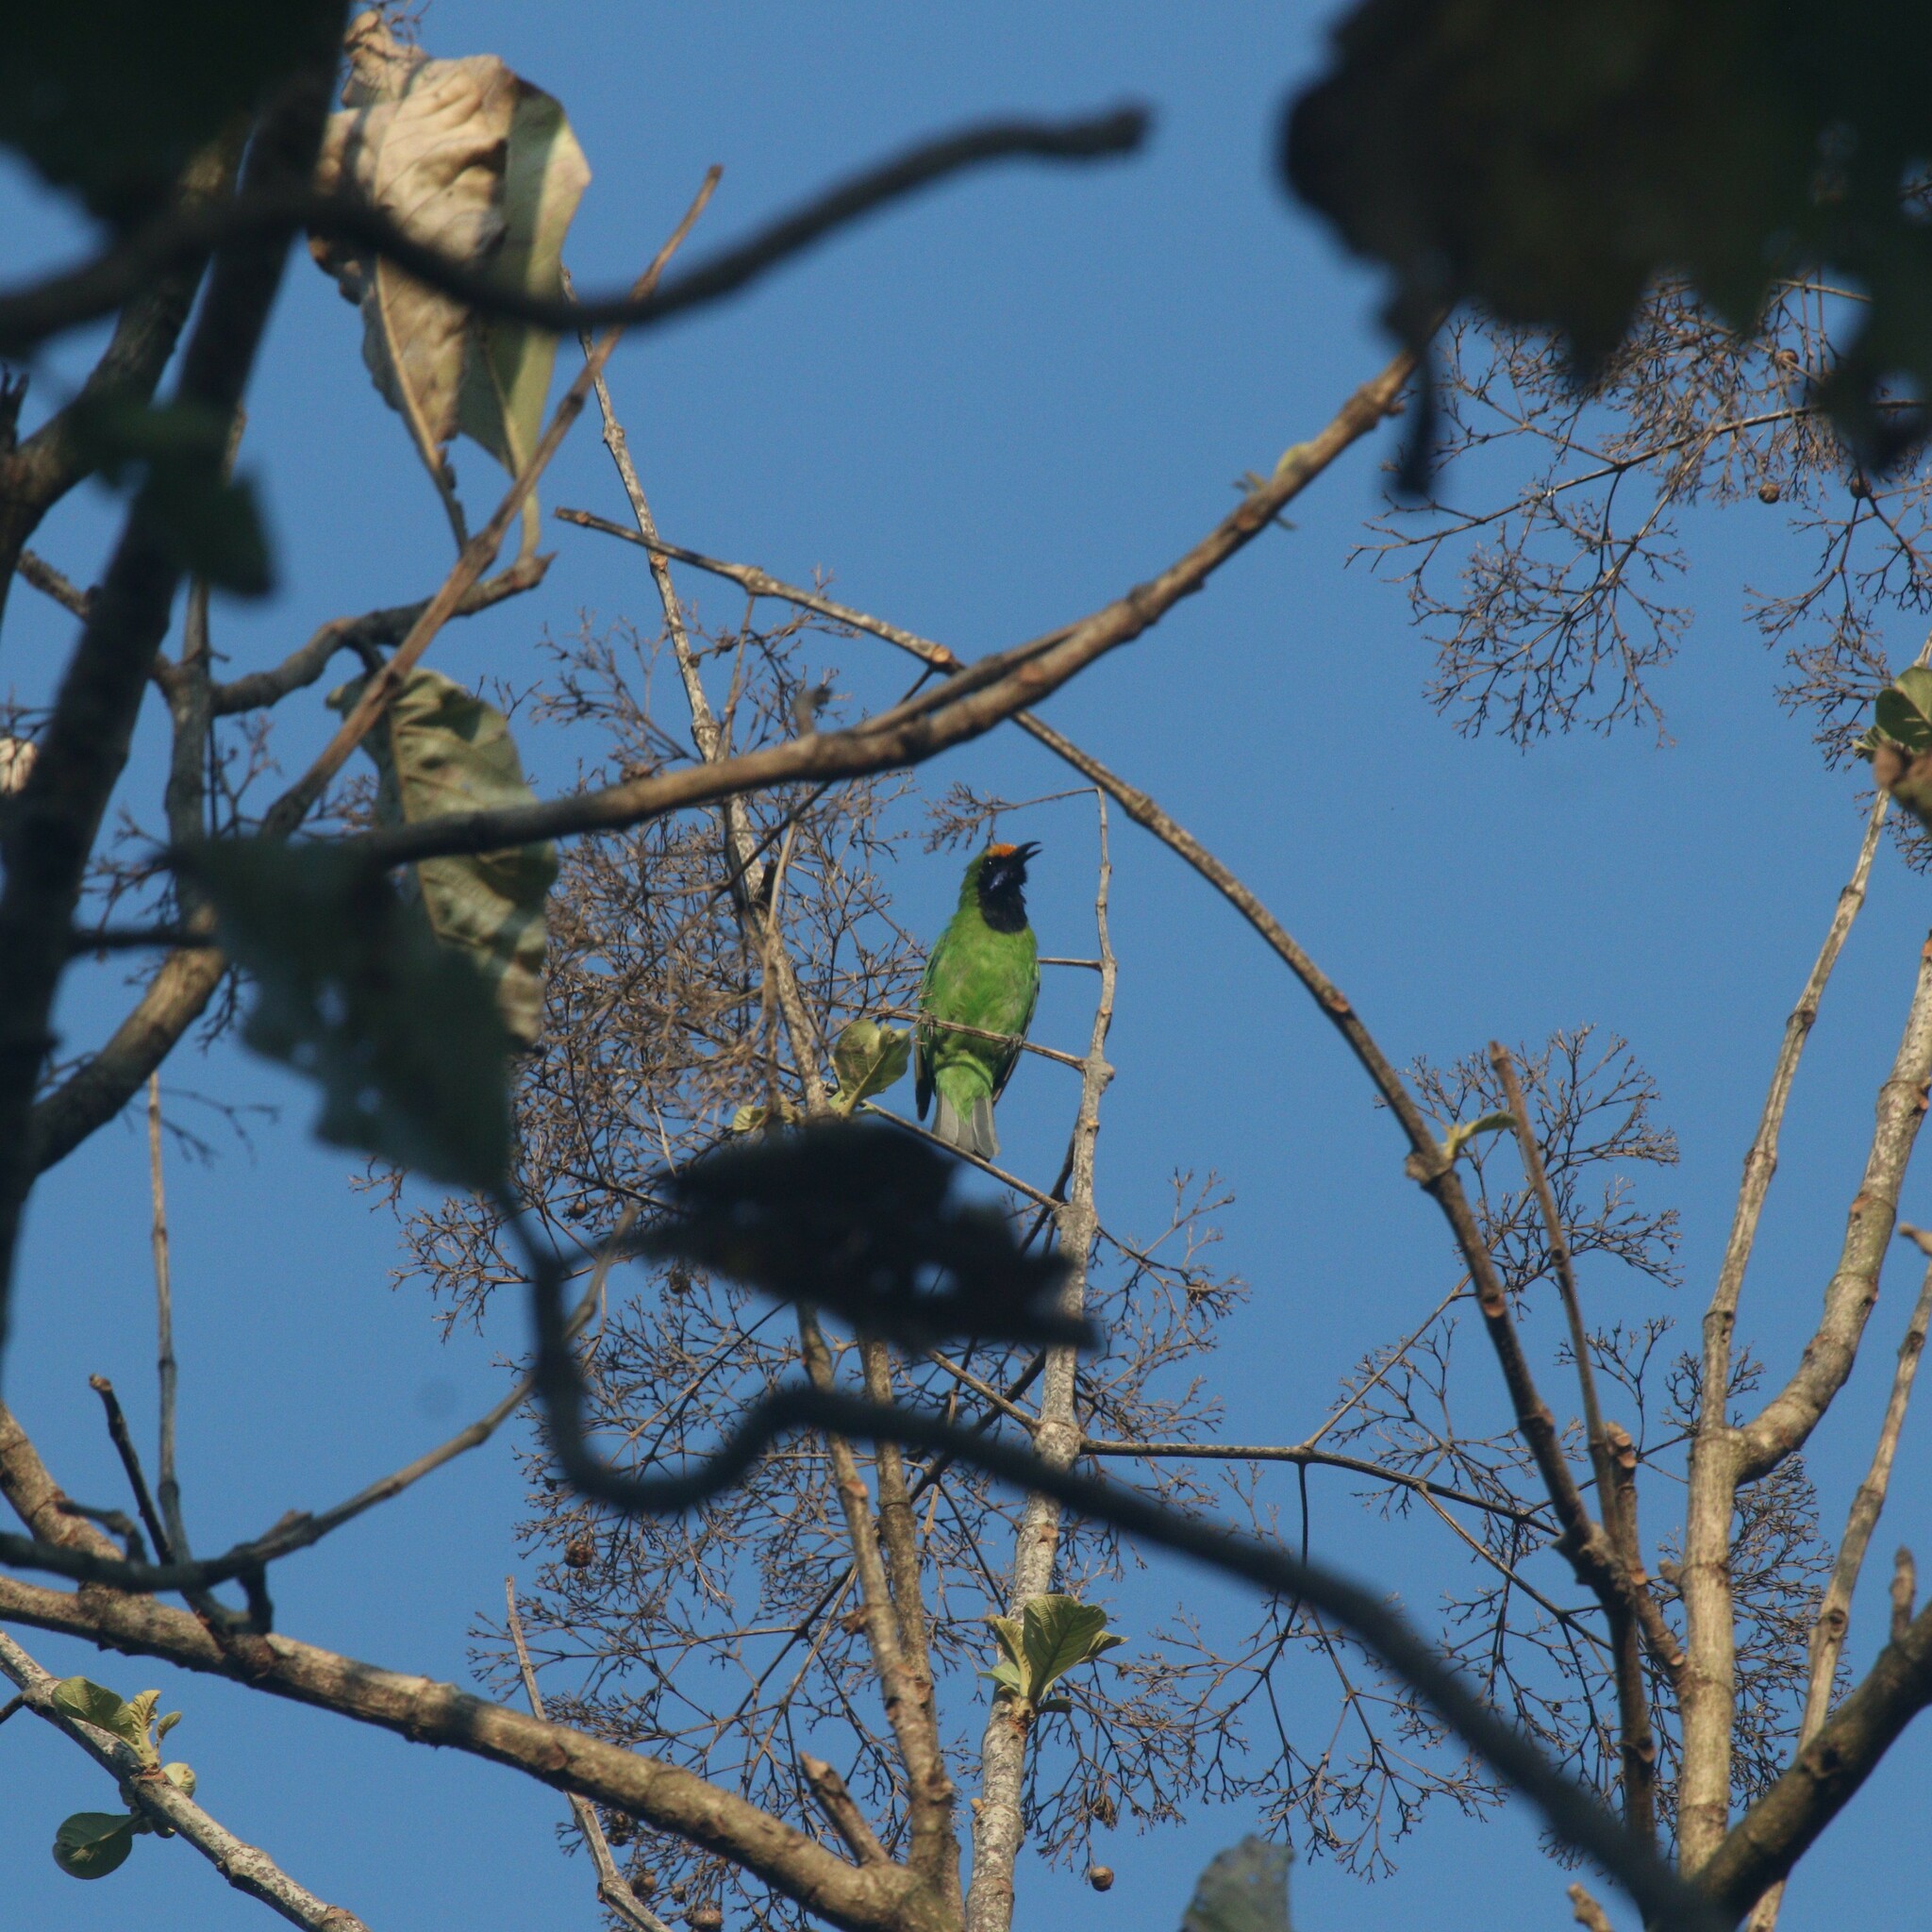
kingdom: Animalia
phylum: Chordata
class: Aves
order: Passeriformes
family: Chloropseidae
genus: Chloropsis
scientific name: Chloropsis aurifrons
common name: Golden-fronted leafbird
